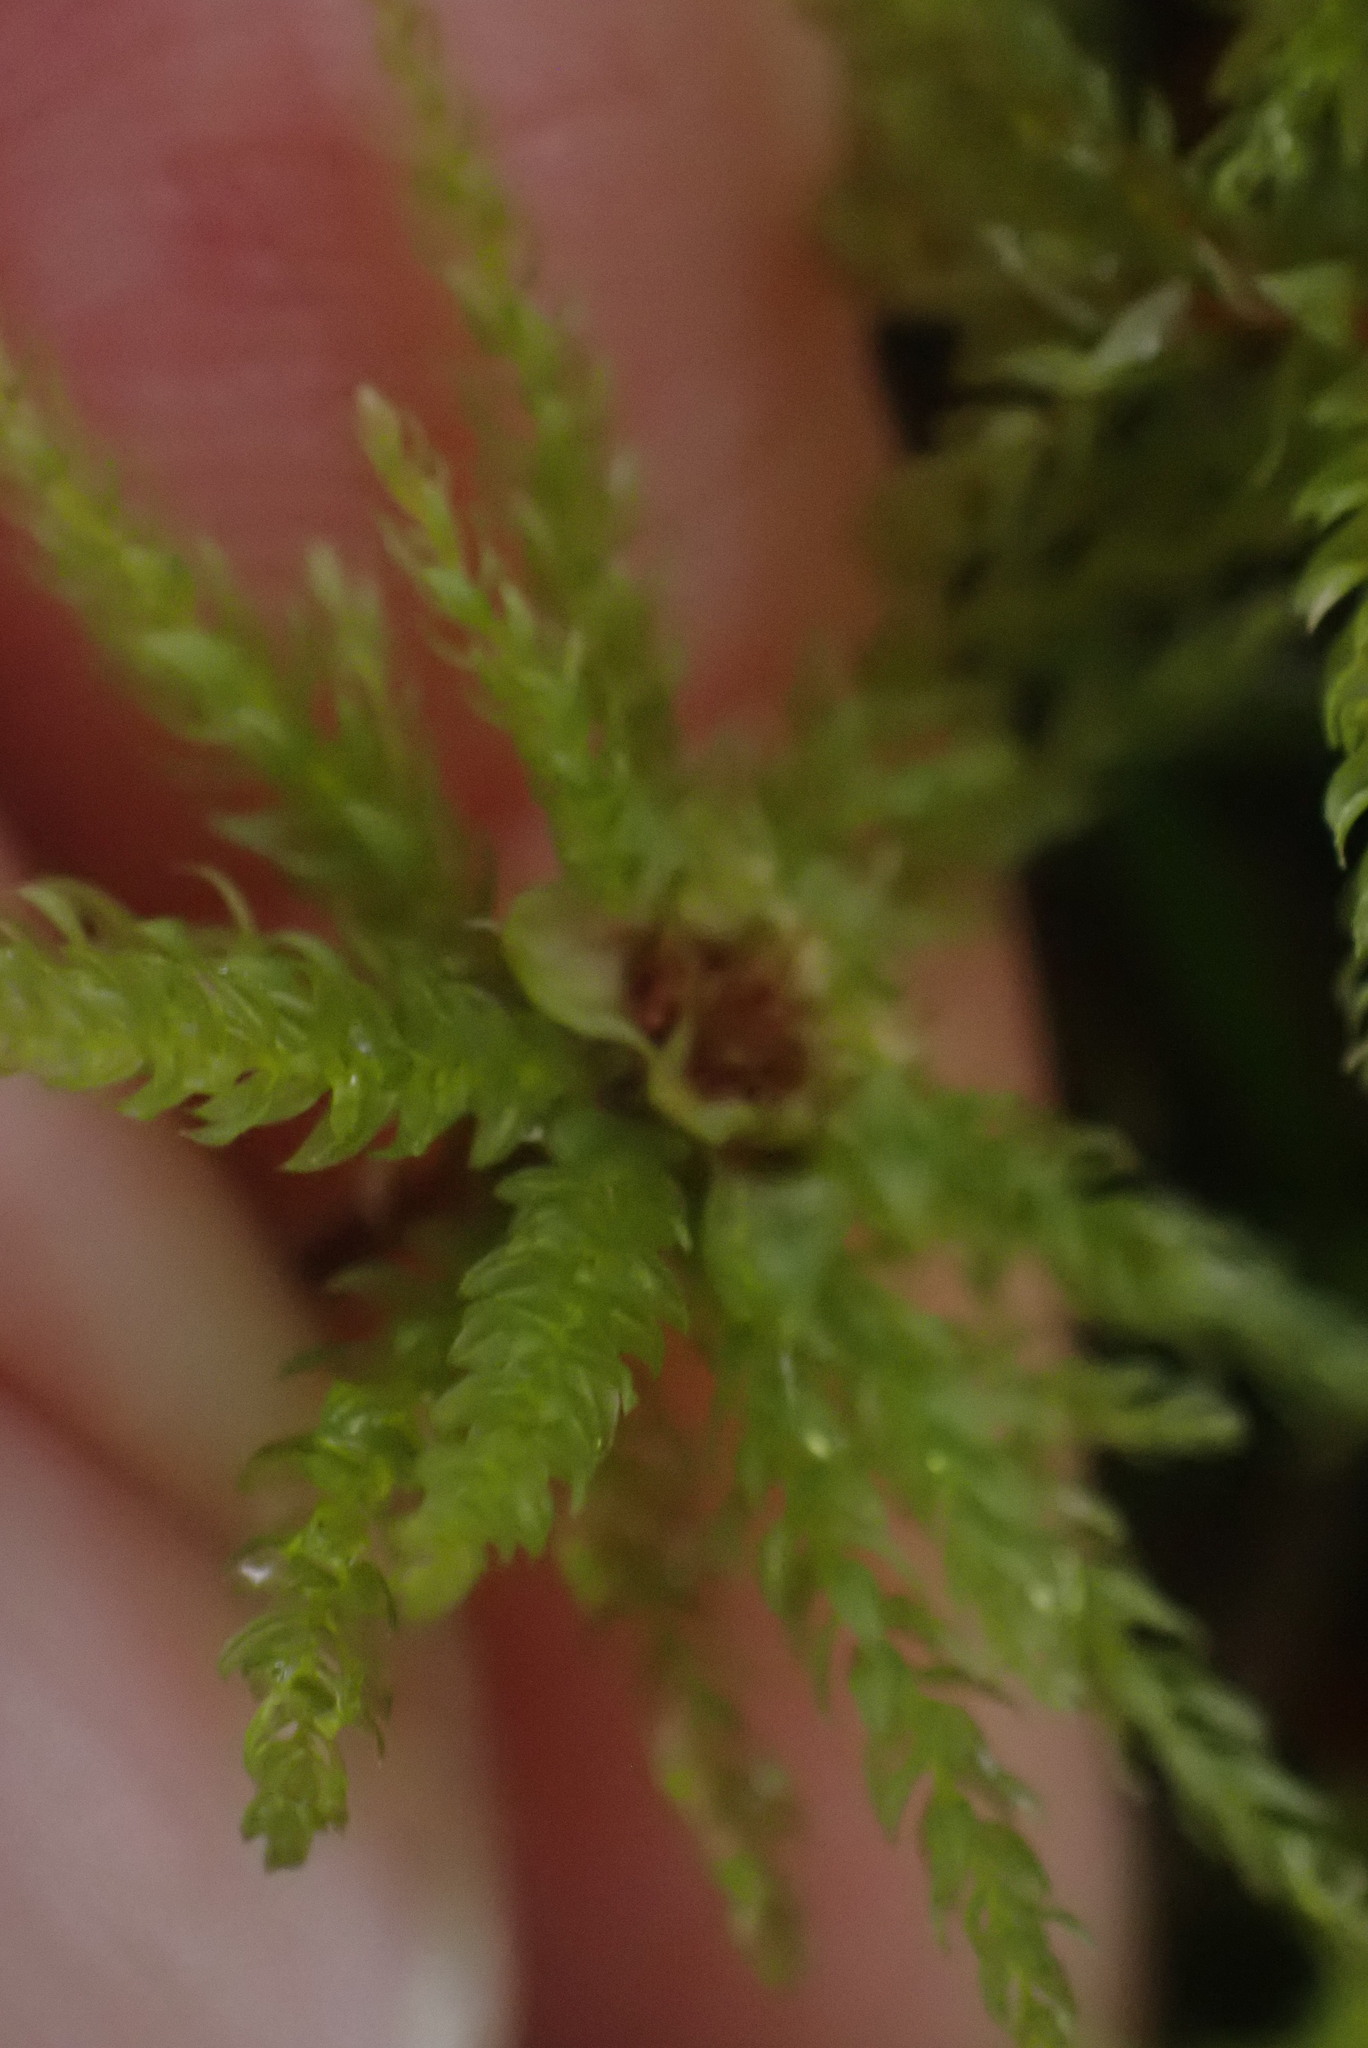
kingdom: Plantae
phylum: Bryophyta
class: Bryopsida
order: Bryales
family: Mniaceae
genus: Leucolepis
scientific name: Leucolepis acanthoneura
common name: Leucolepis umbrella moss
